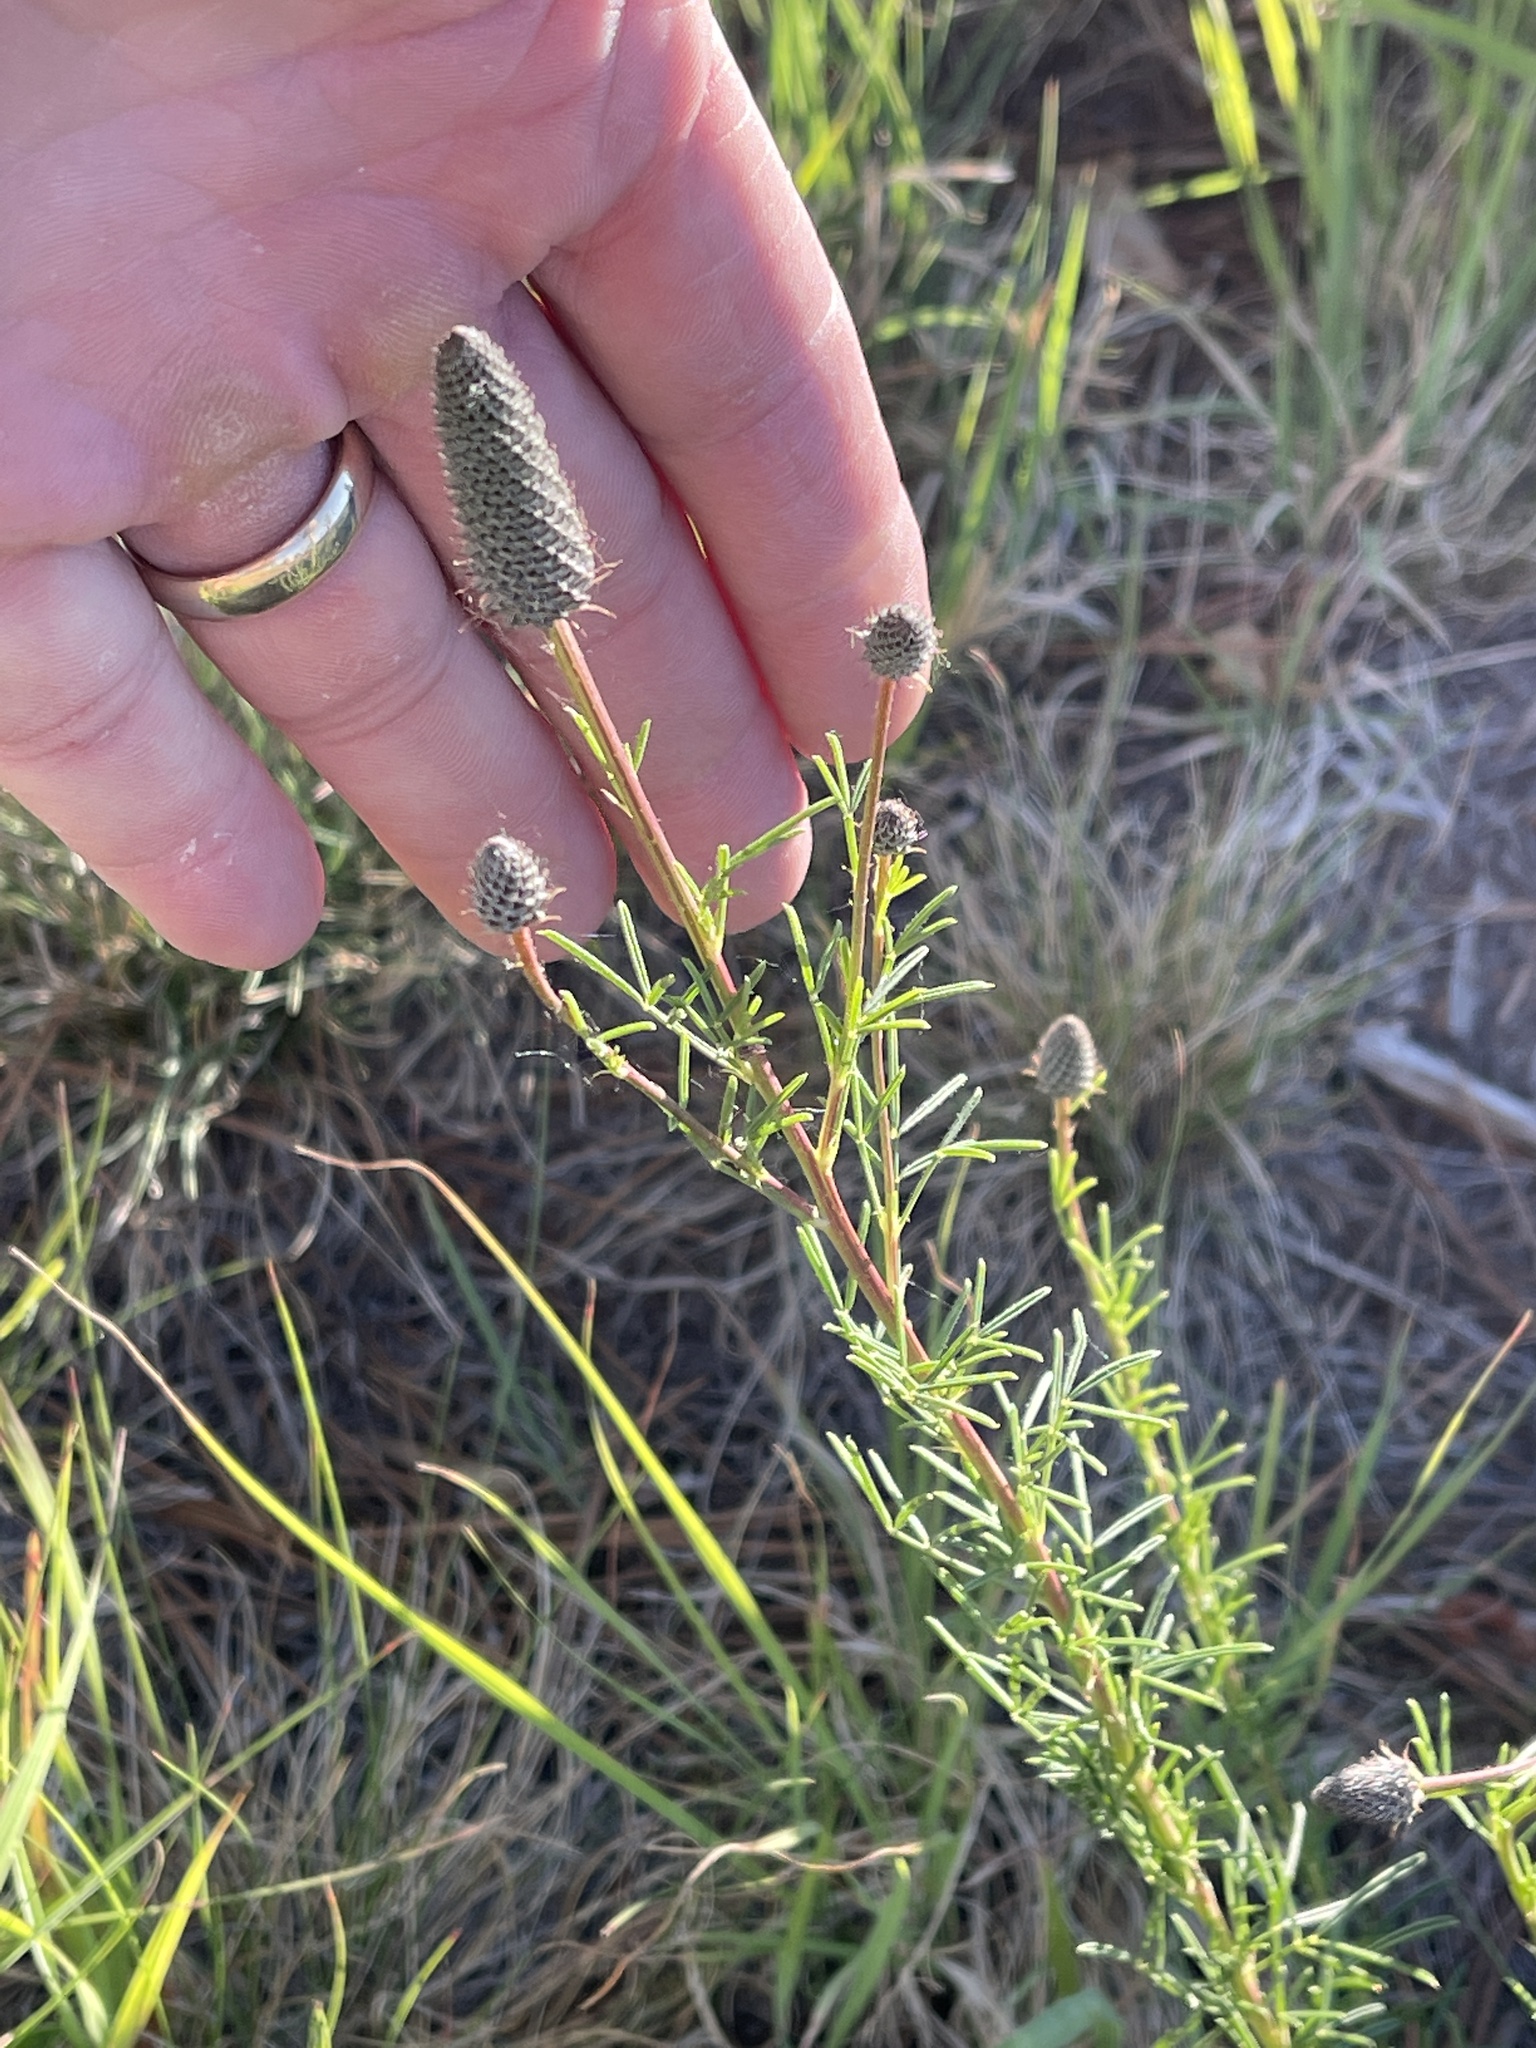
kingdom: Plantae
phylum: Tracheophyta
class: Magnoliopsida
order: Fabales
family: Fabaceae
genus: Dalea
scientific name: Dalea purpurea
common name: Purple prairie-clover
